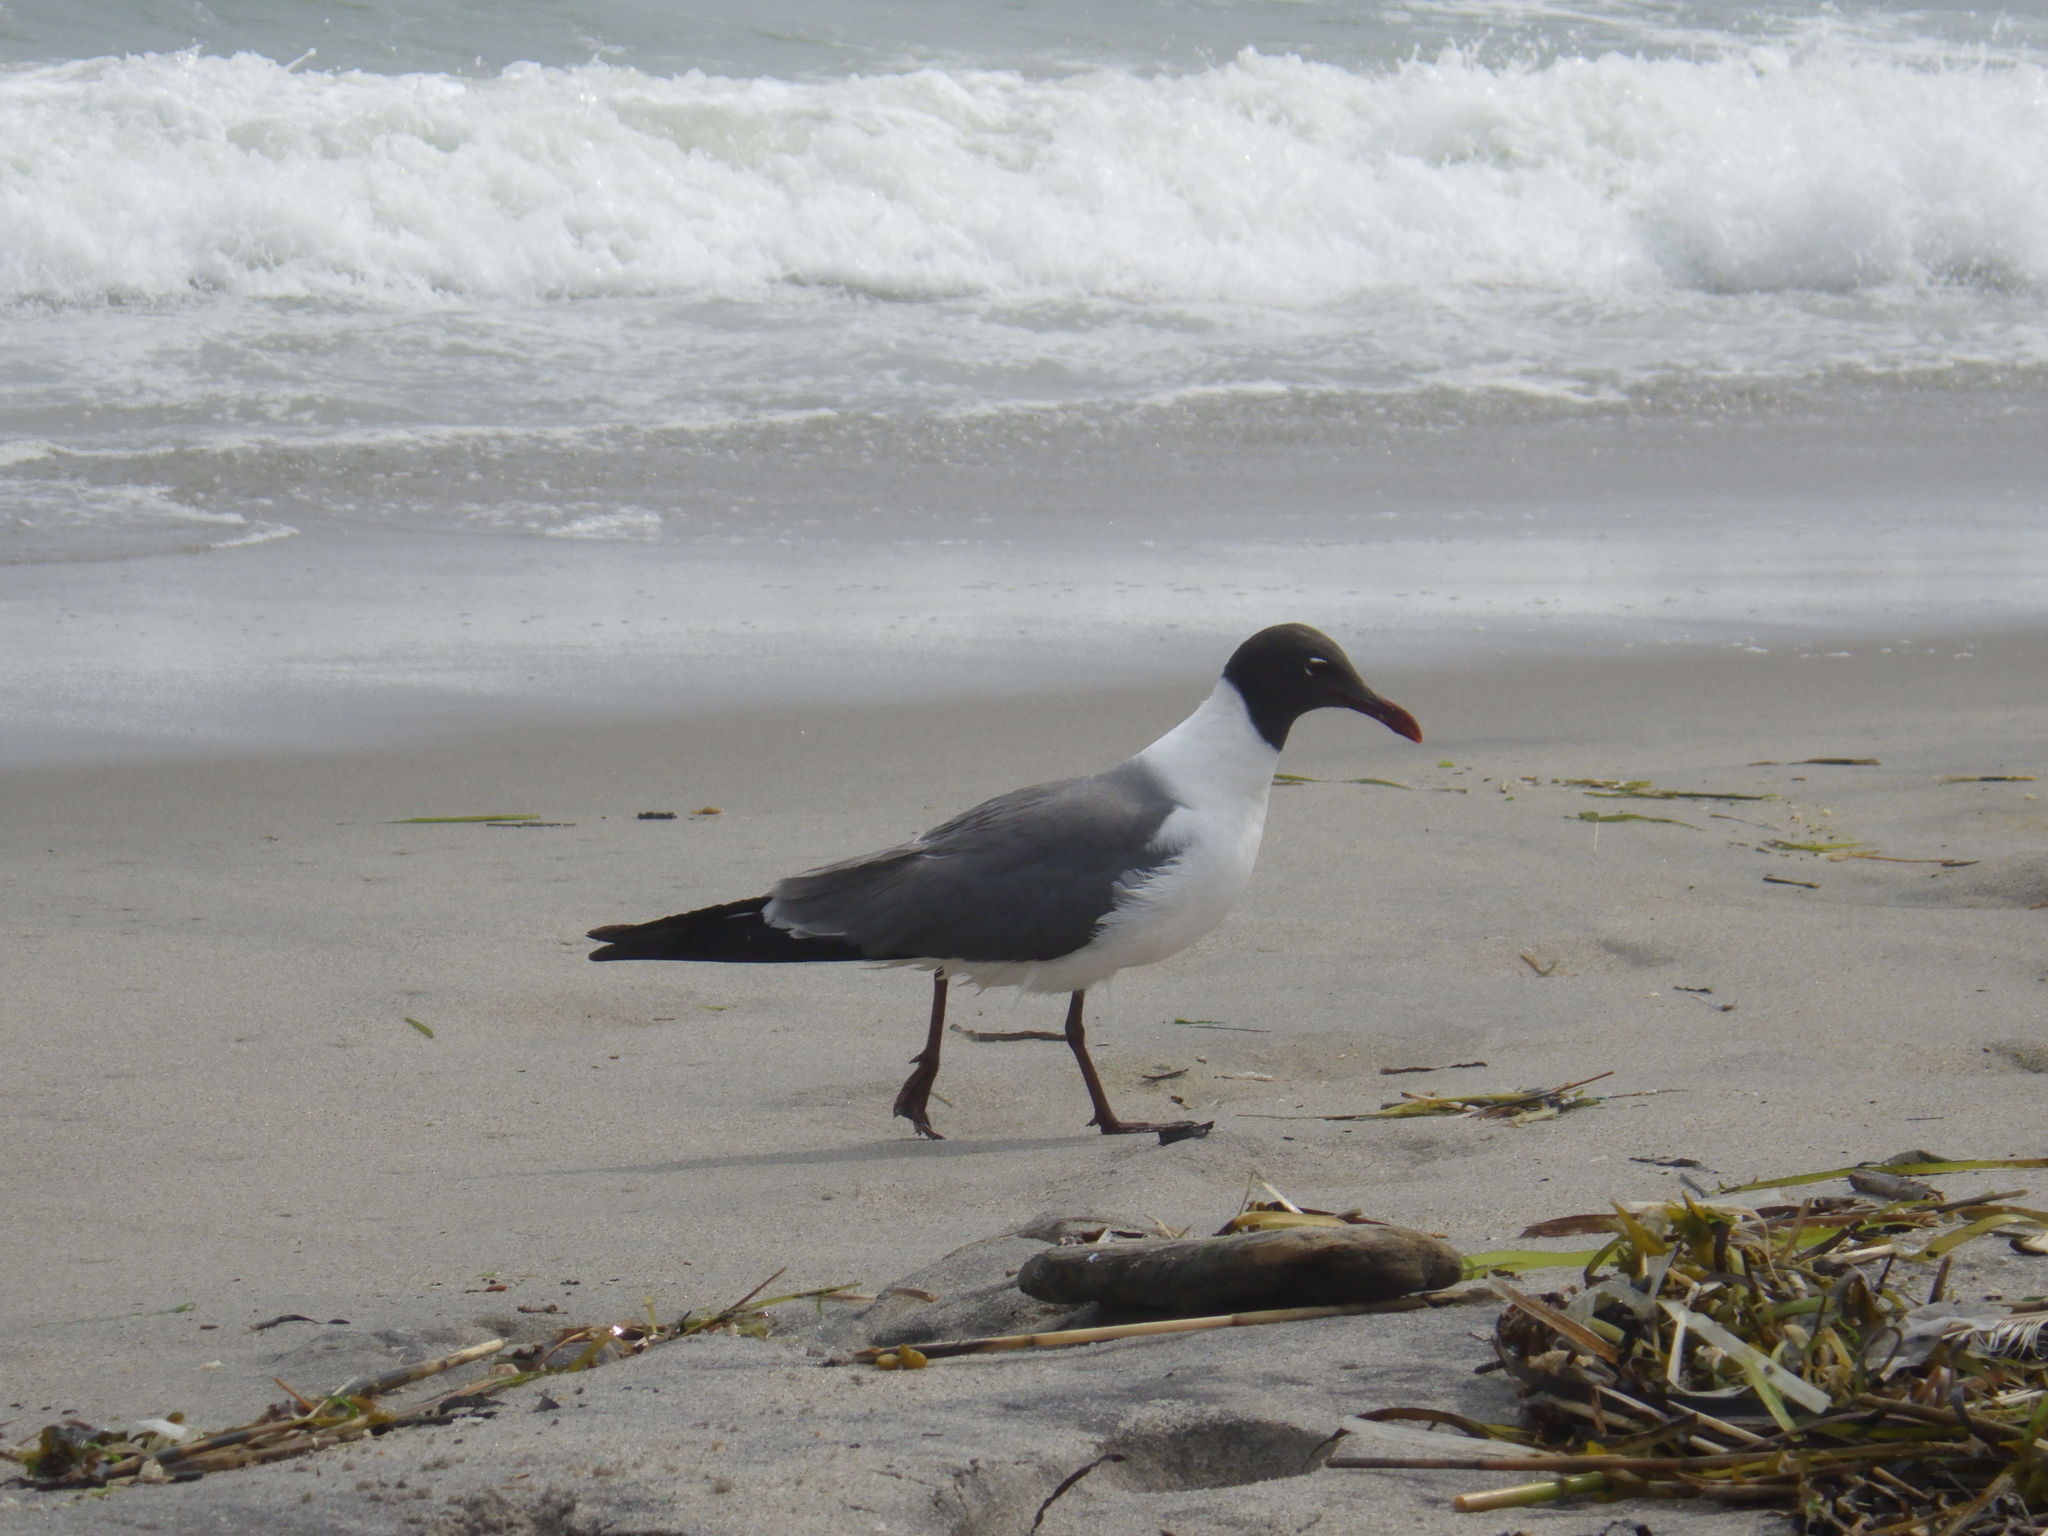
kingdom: Animalia
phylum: Chordata
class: Aves
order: Charadriiformes
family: Laridae
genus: Leucophaeus
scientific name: Leucophaeus atricilla
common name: Laughing gull
